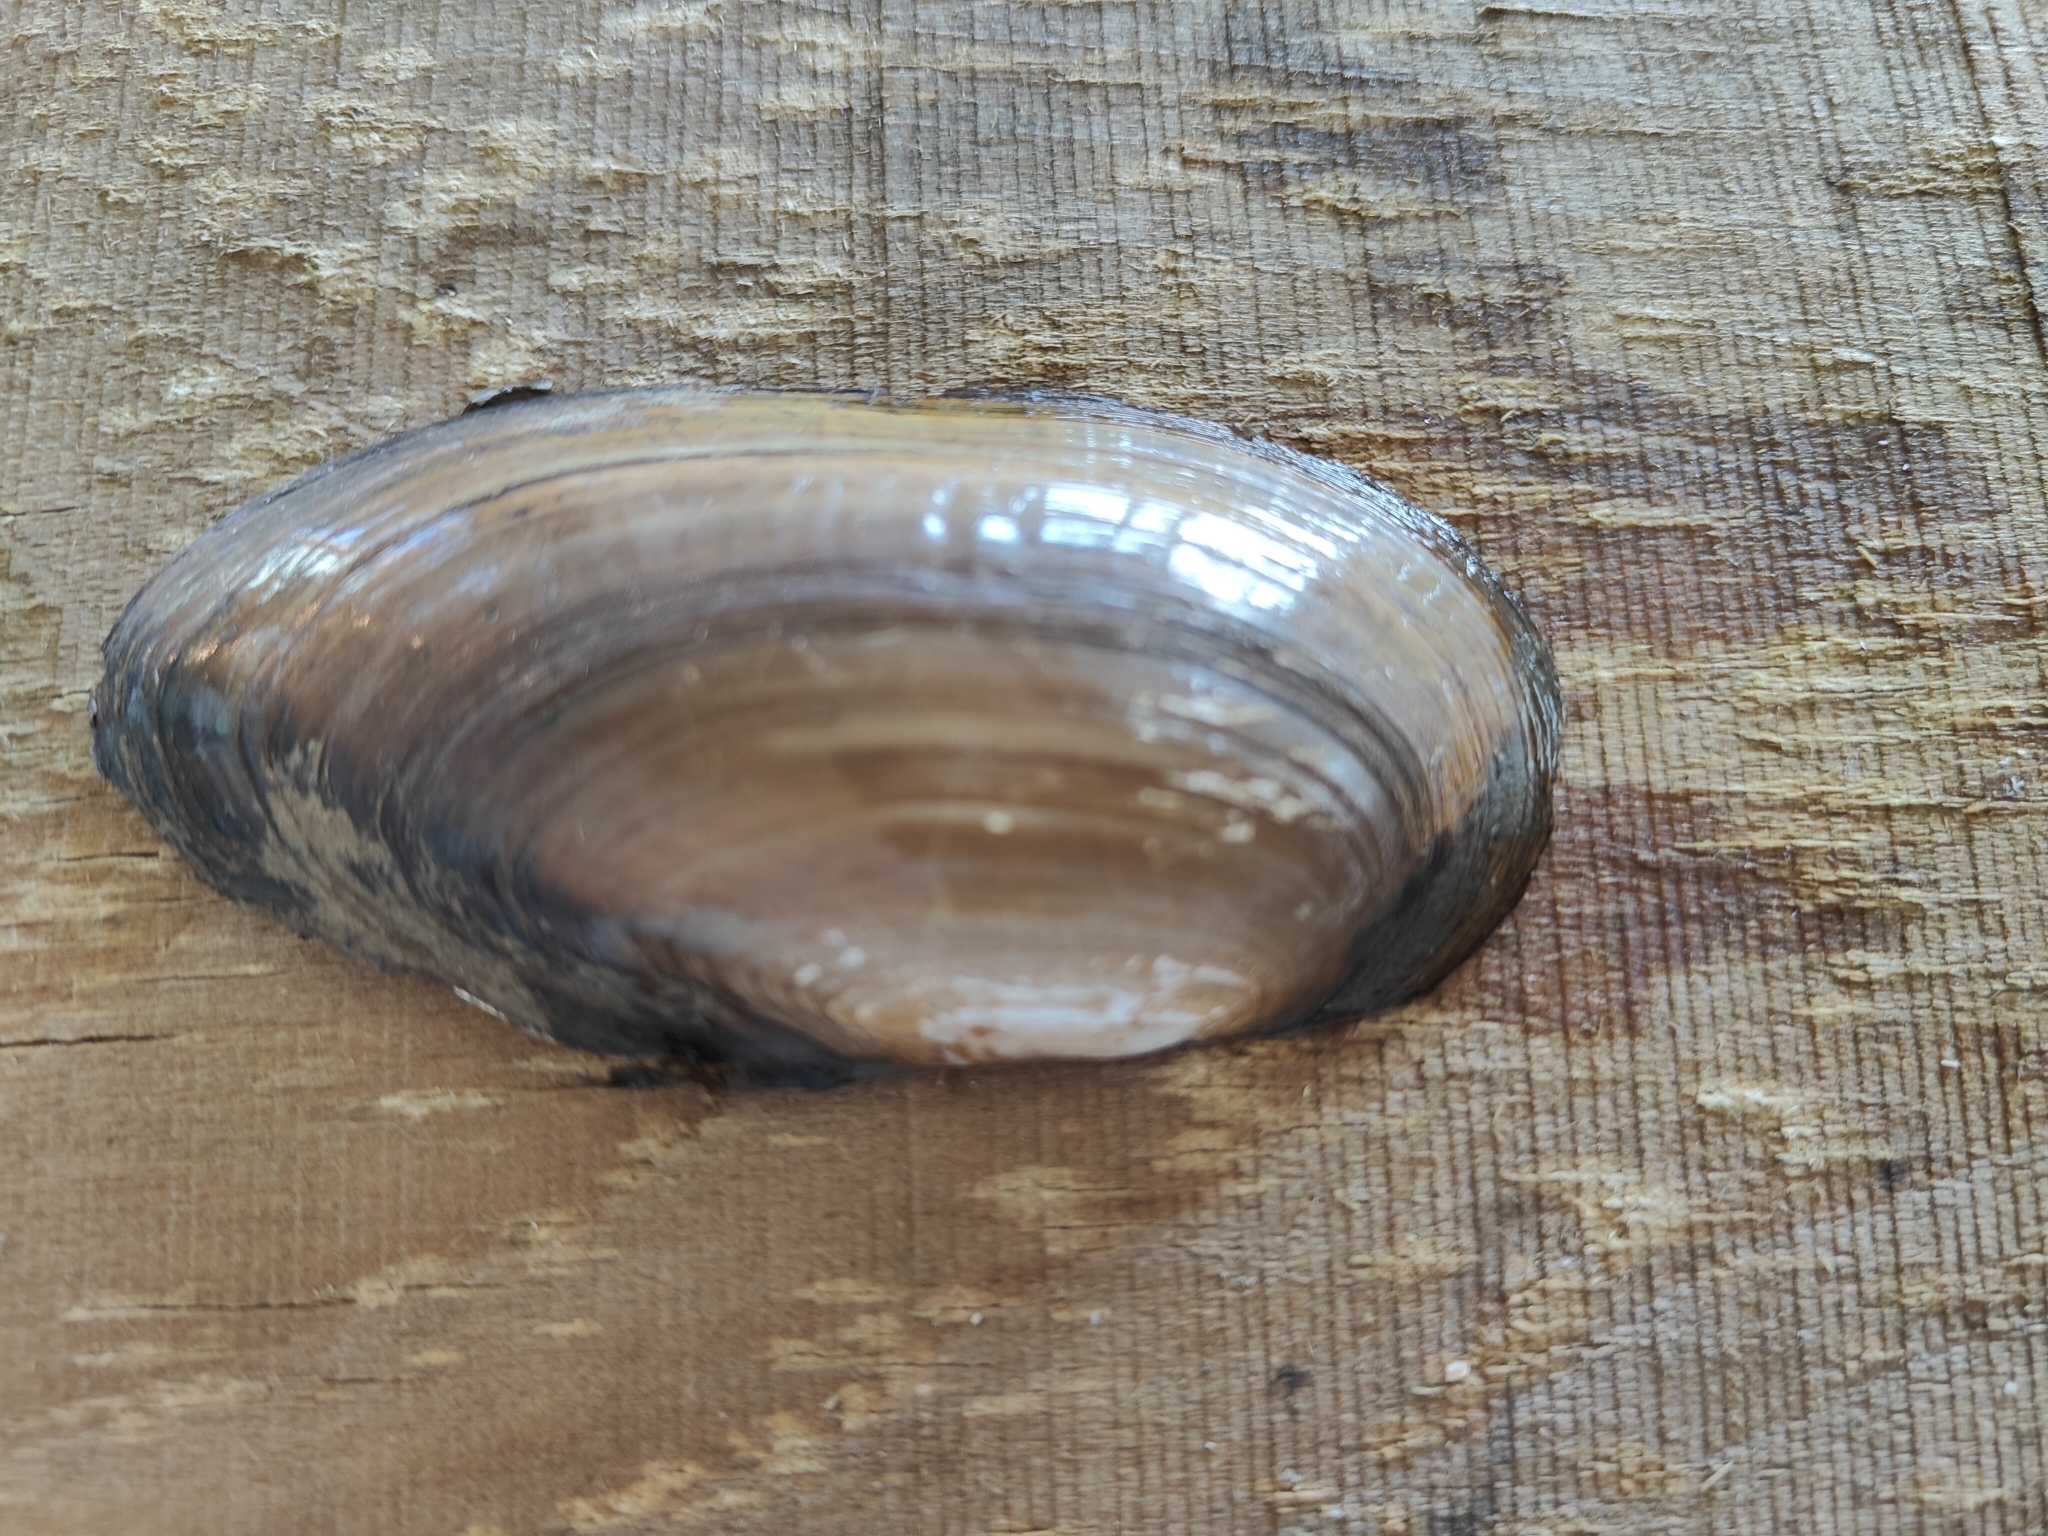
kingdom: Animalia
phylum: Mollusca
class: Bivalvia
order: Unionida
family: Unionidae
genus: Utterbackia
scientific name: Utterbackia imbecillis
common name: Paper pondshell
